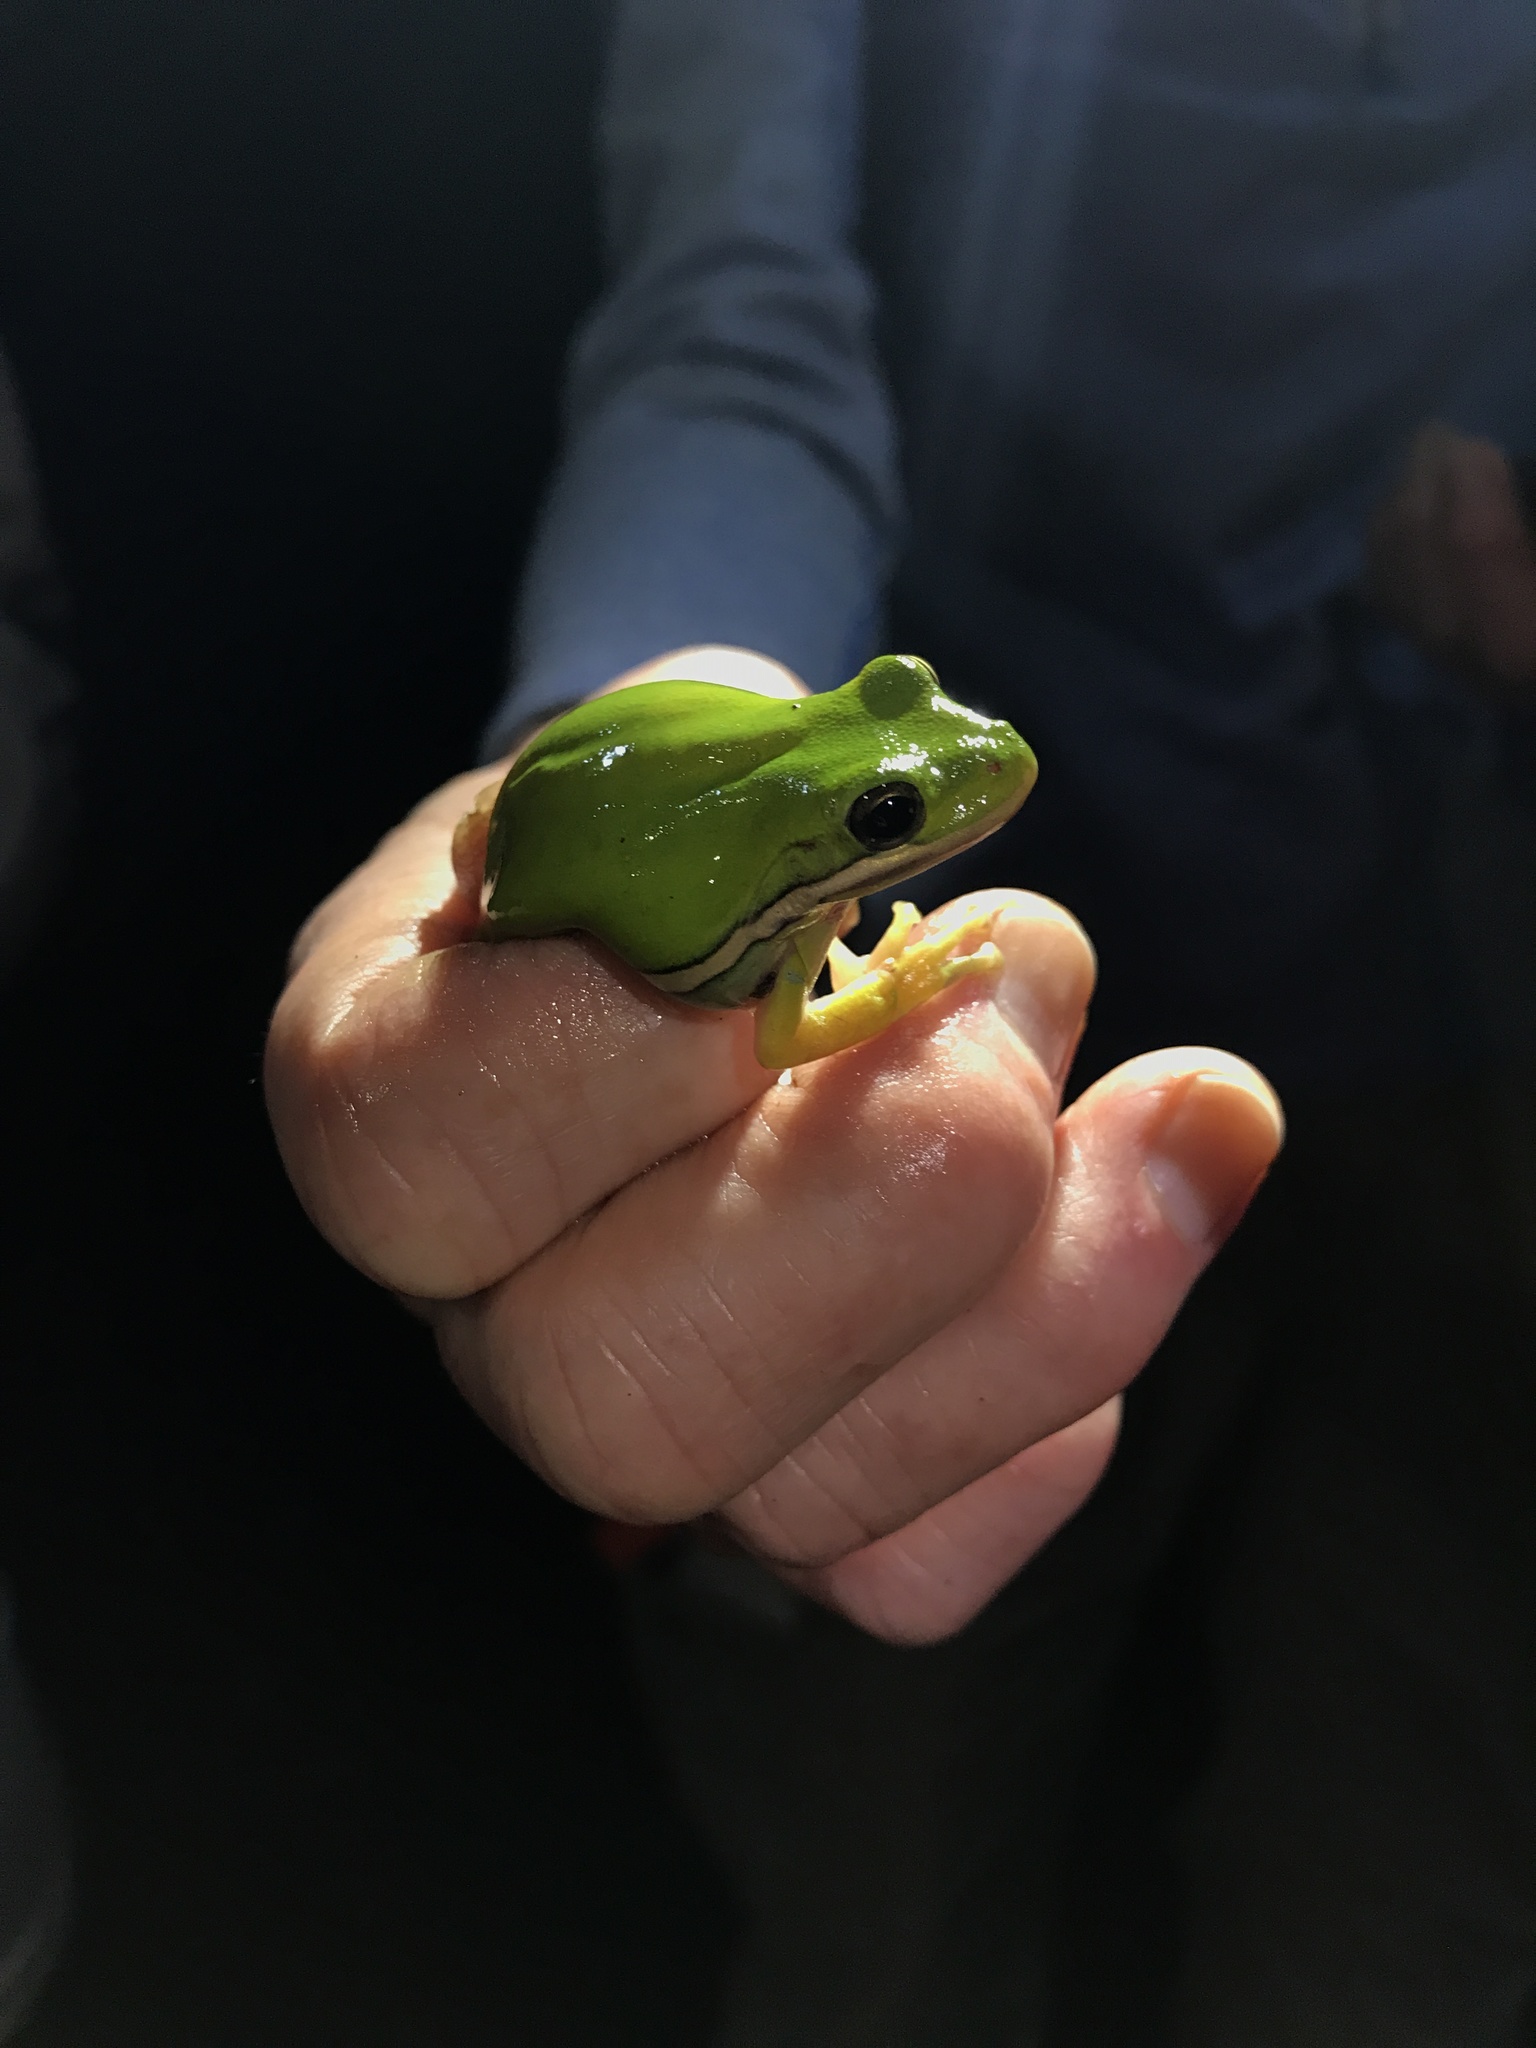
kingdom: Animalia
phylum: Chordata
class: Amphibia
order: Anura
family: Hylidae
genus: Dryophytes
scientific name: Dryophytes cinereus
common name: Green treefrog
